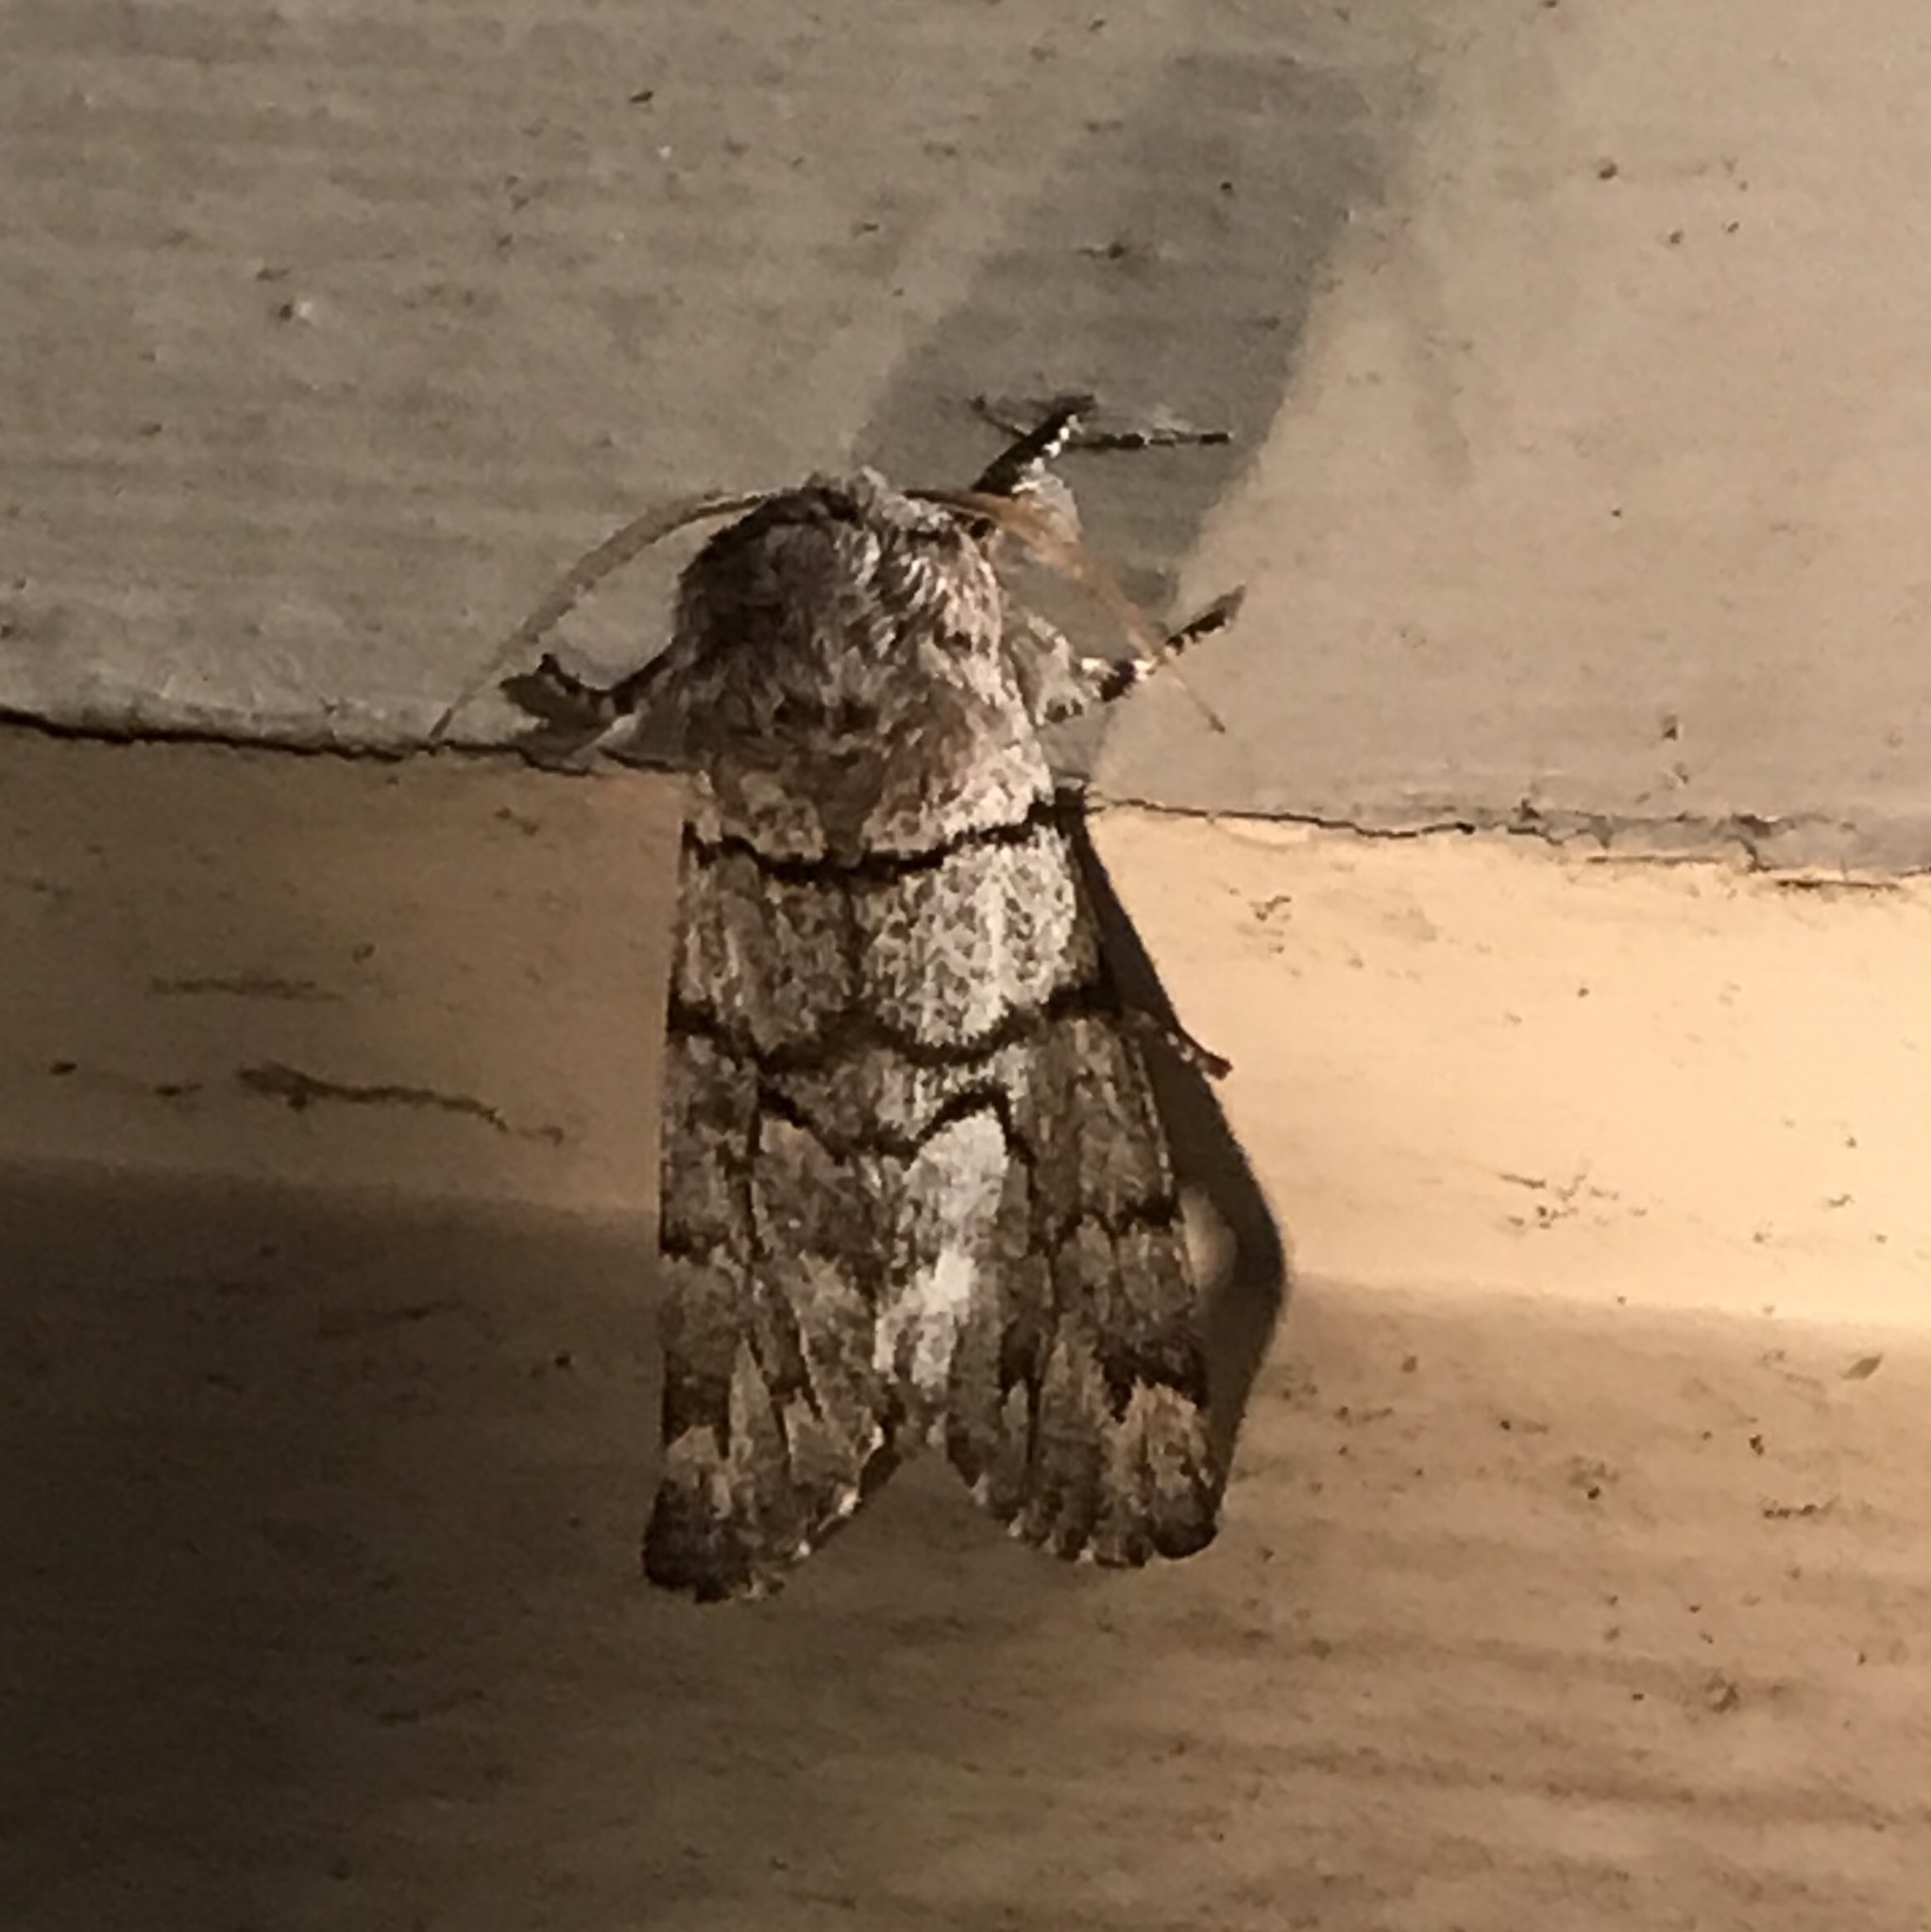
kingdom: Animalia
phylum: Arthropoda
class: Insecta
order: Lepidoptera
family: Noctuidae
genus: Panthea
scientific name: Panthea furcilla
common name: Eastern panthea moth
